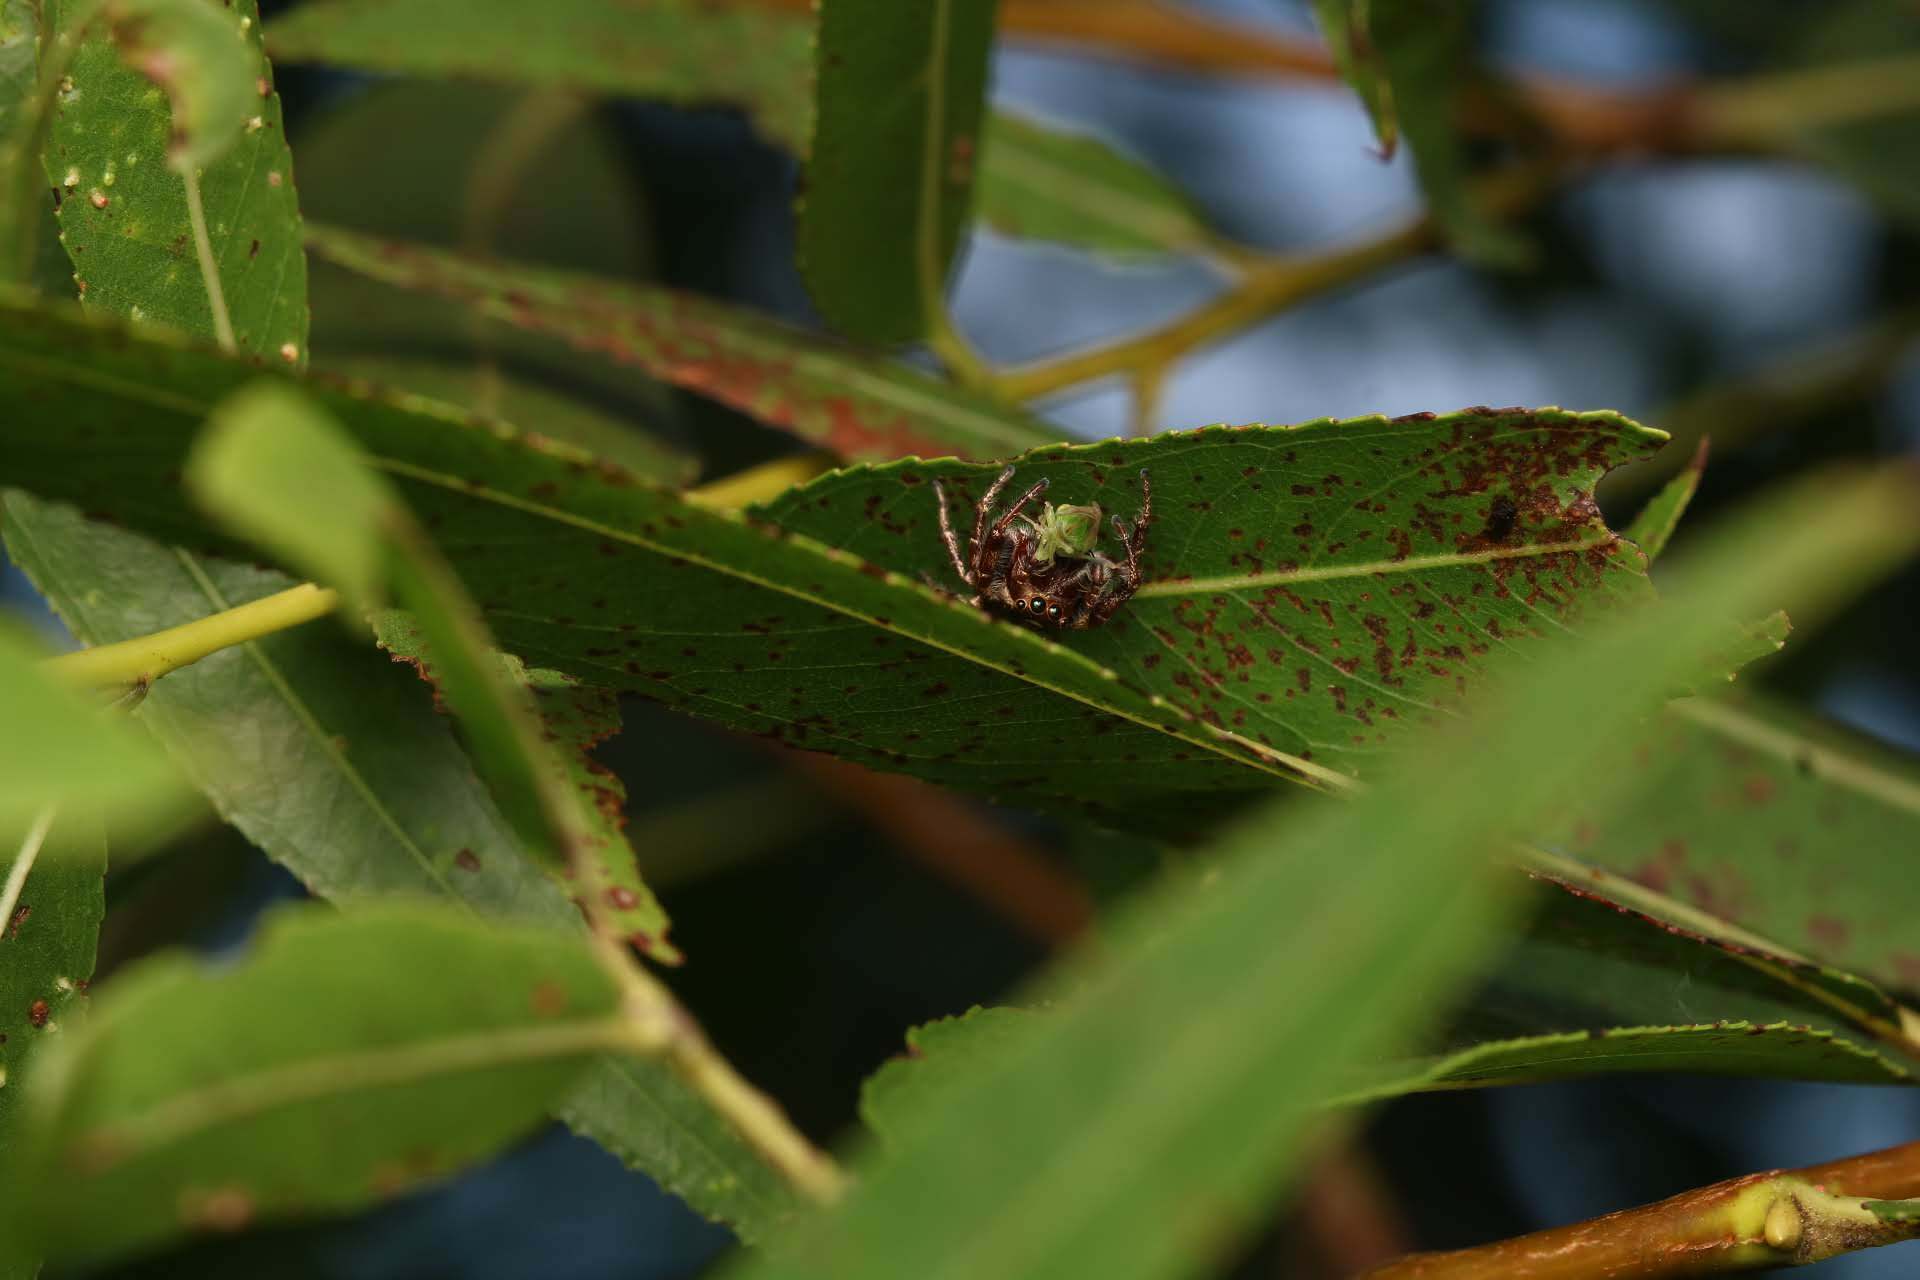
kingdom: Animalia
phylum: Arthropoda
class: Arachnida
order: Araneae
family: Salticidae
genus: Eris
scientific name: Eris militaris
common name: Bronze jumper
